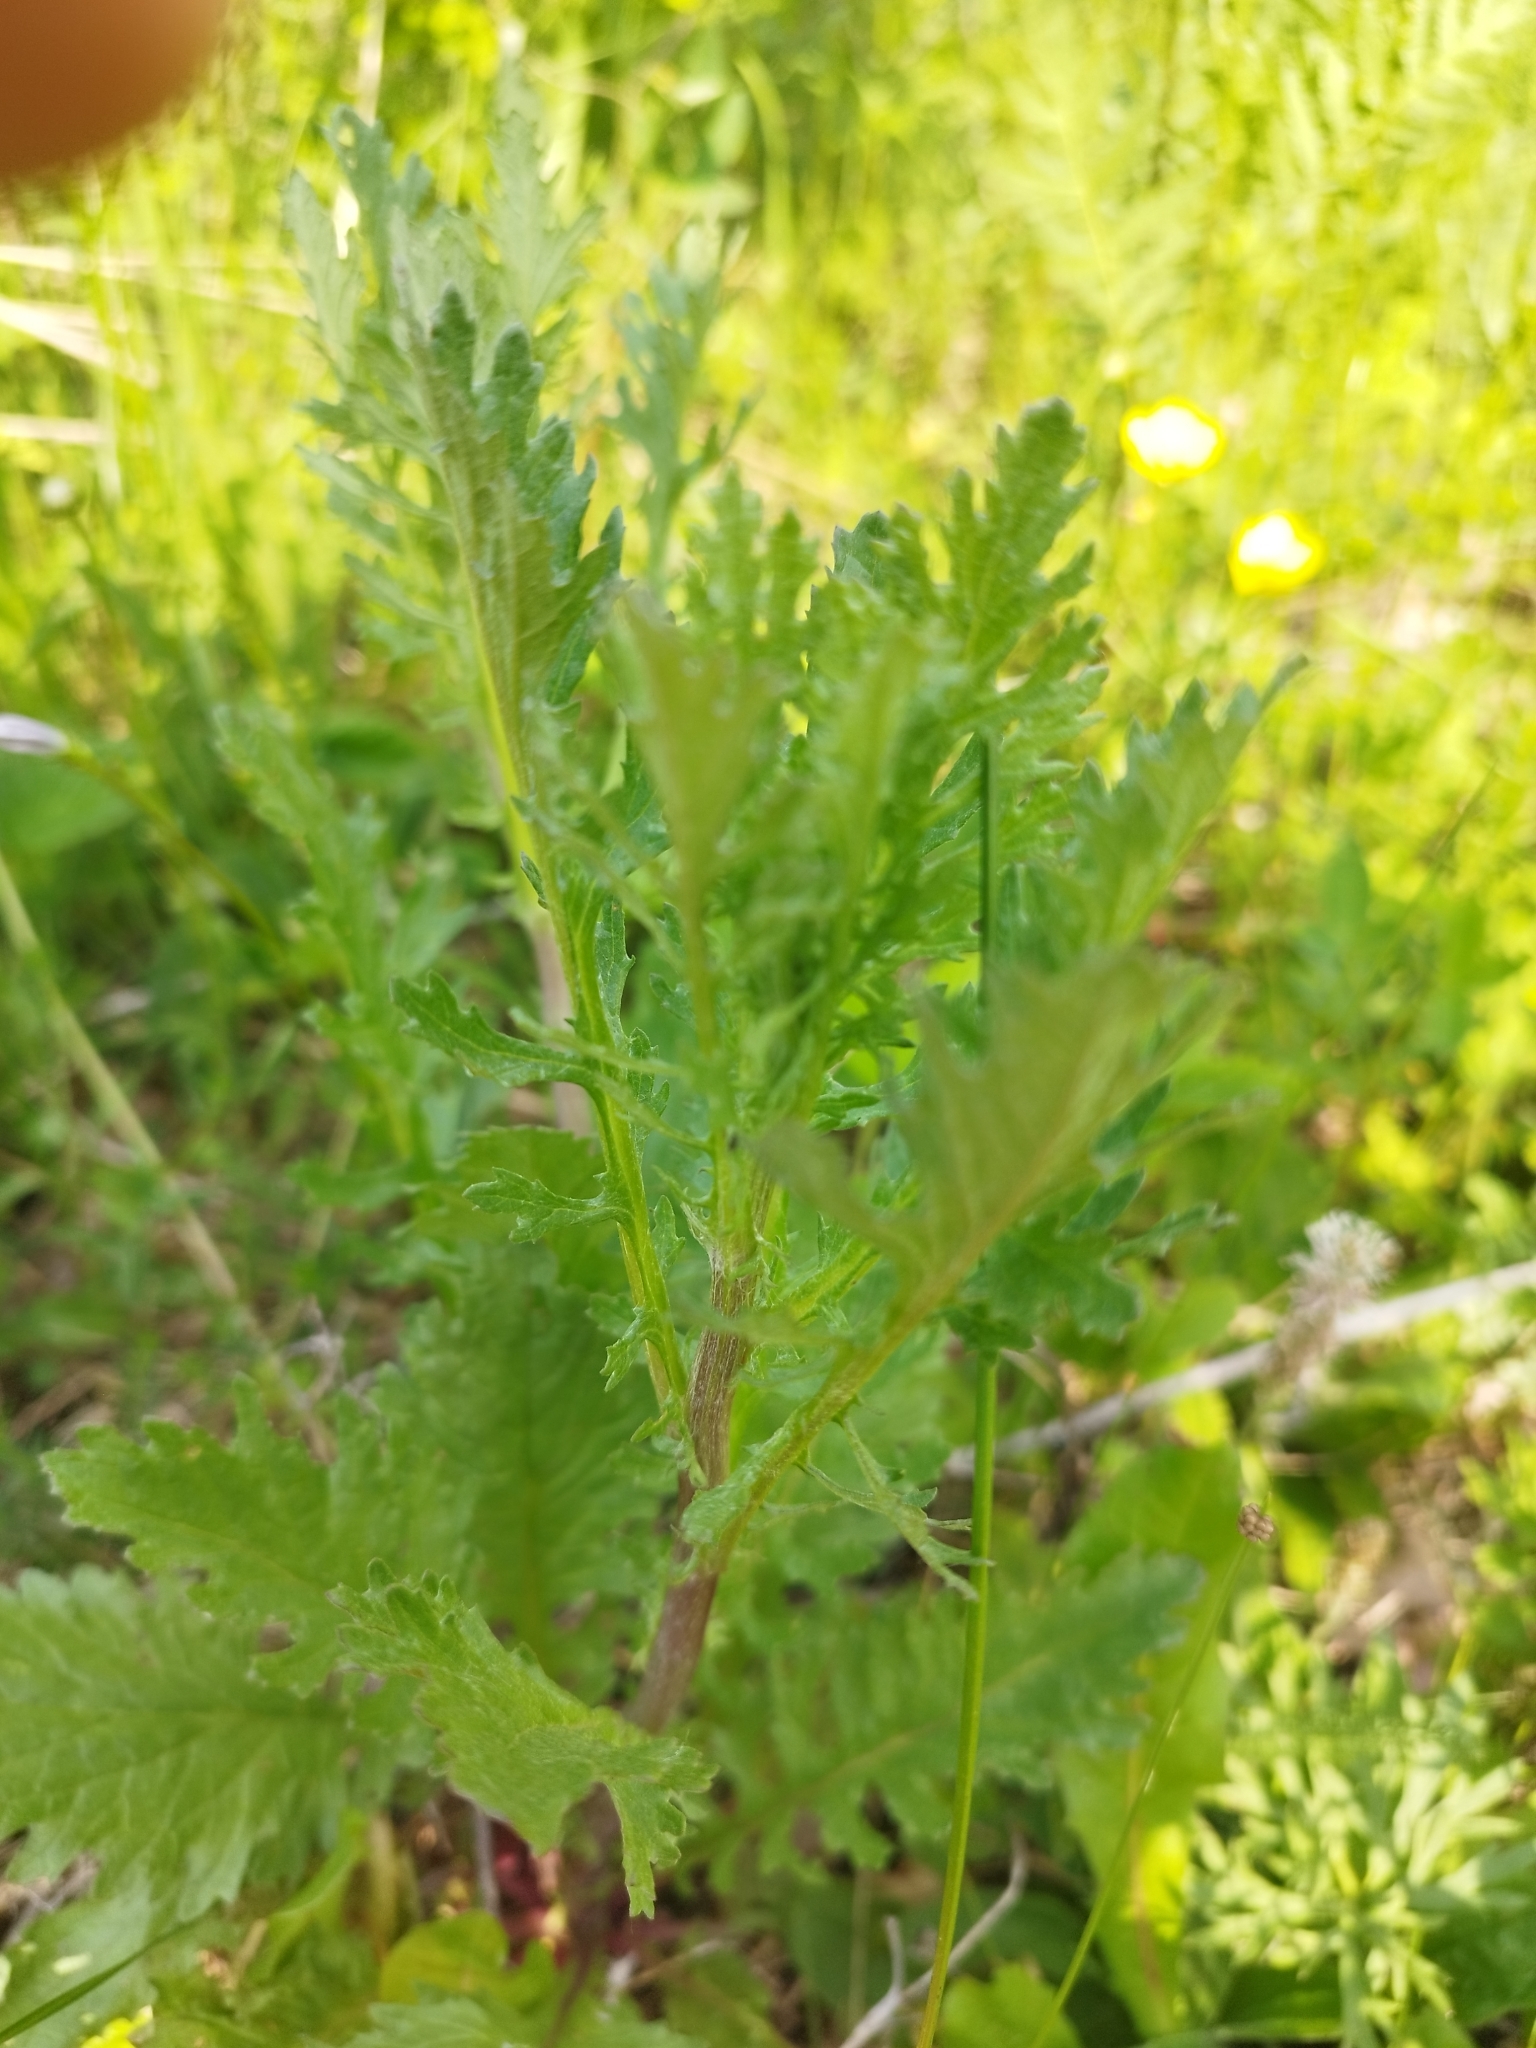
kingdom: Plantae
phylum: Tracheophyta
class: Magnoliopsida
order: Asterales
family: Asteraceae
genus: Jacobaea
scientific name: Jacobaea vulgaris
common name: Stinking willie
